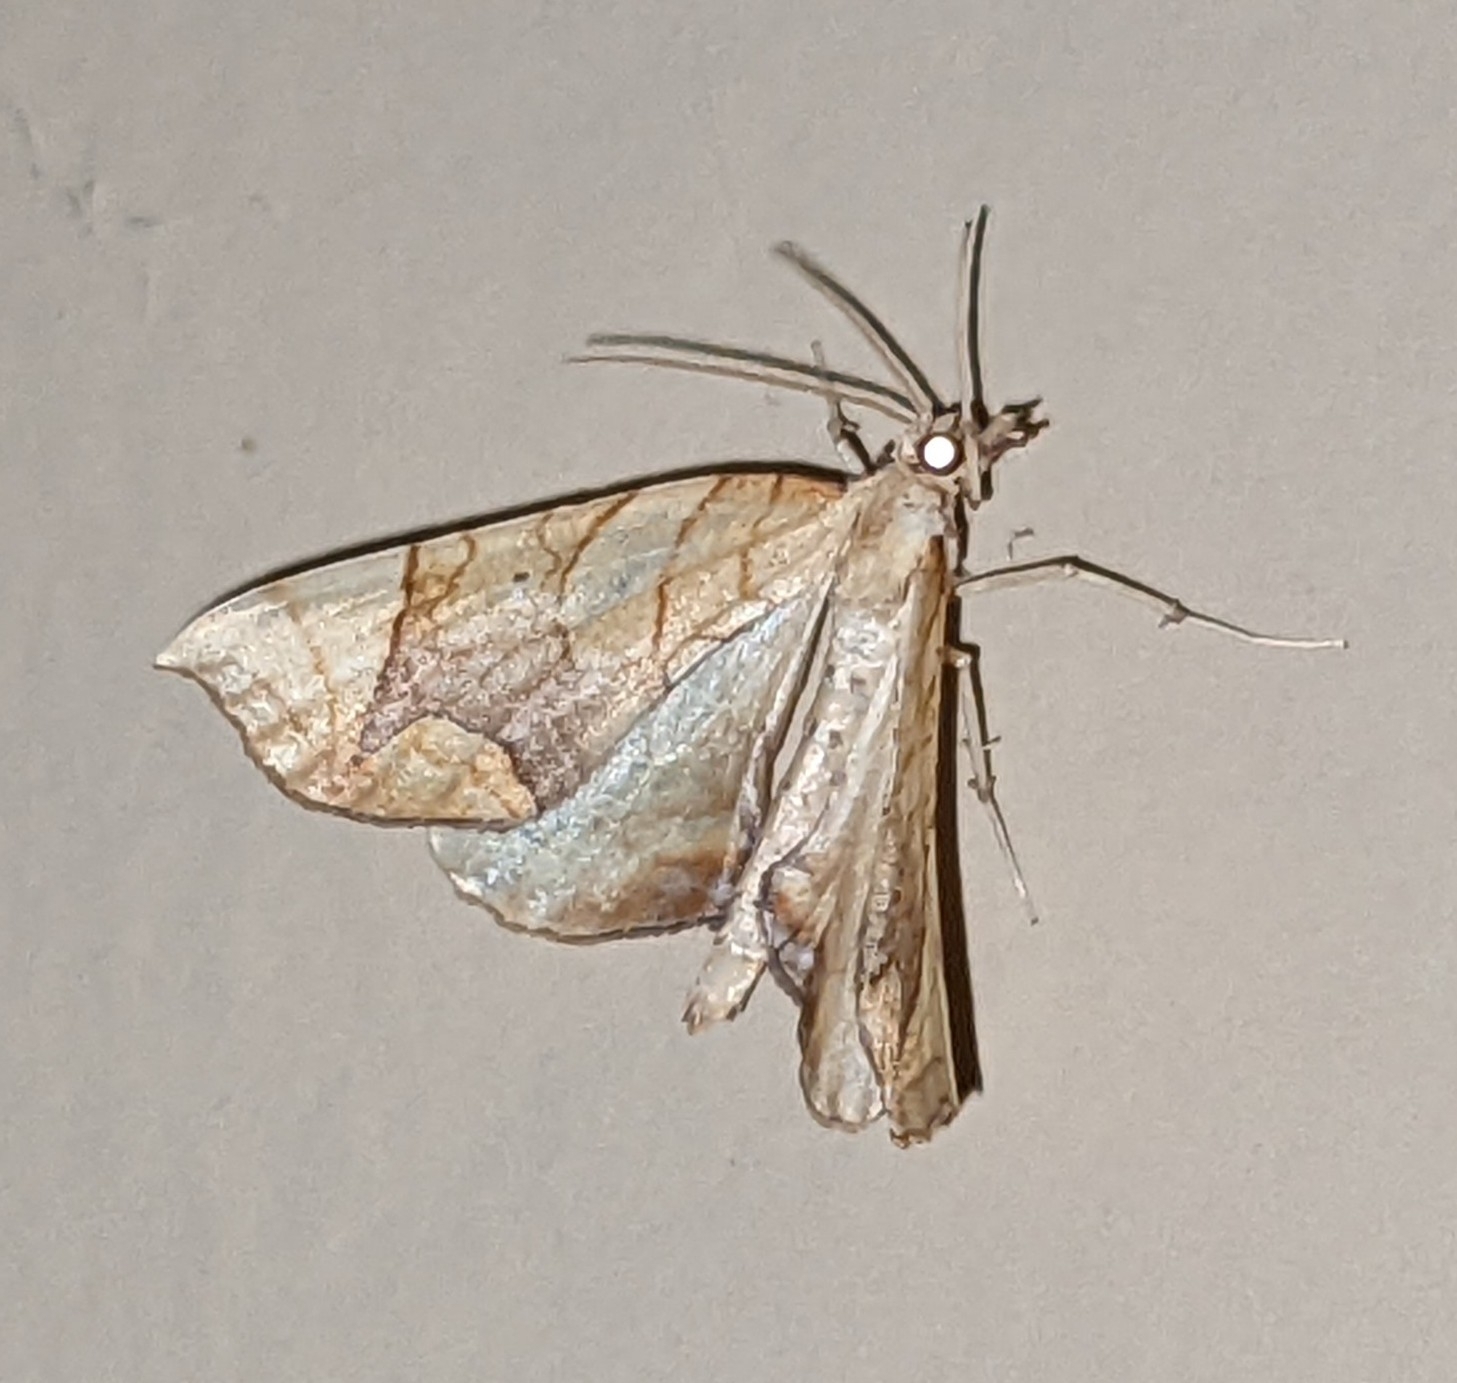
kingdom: Animalia
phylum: Arthropoda
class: Insecta
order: Lepidoptera
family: Geometridae
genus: Eulithis
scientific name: Eulithis
